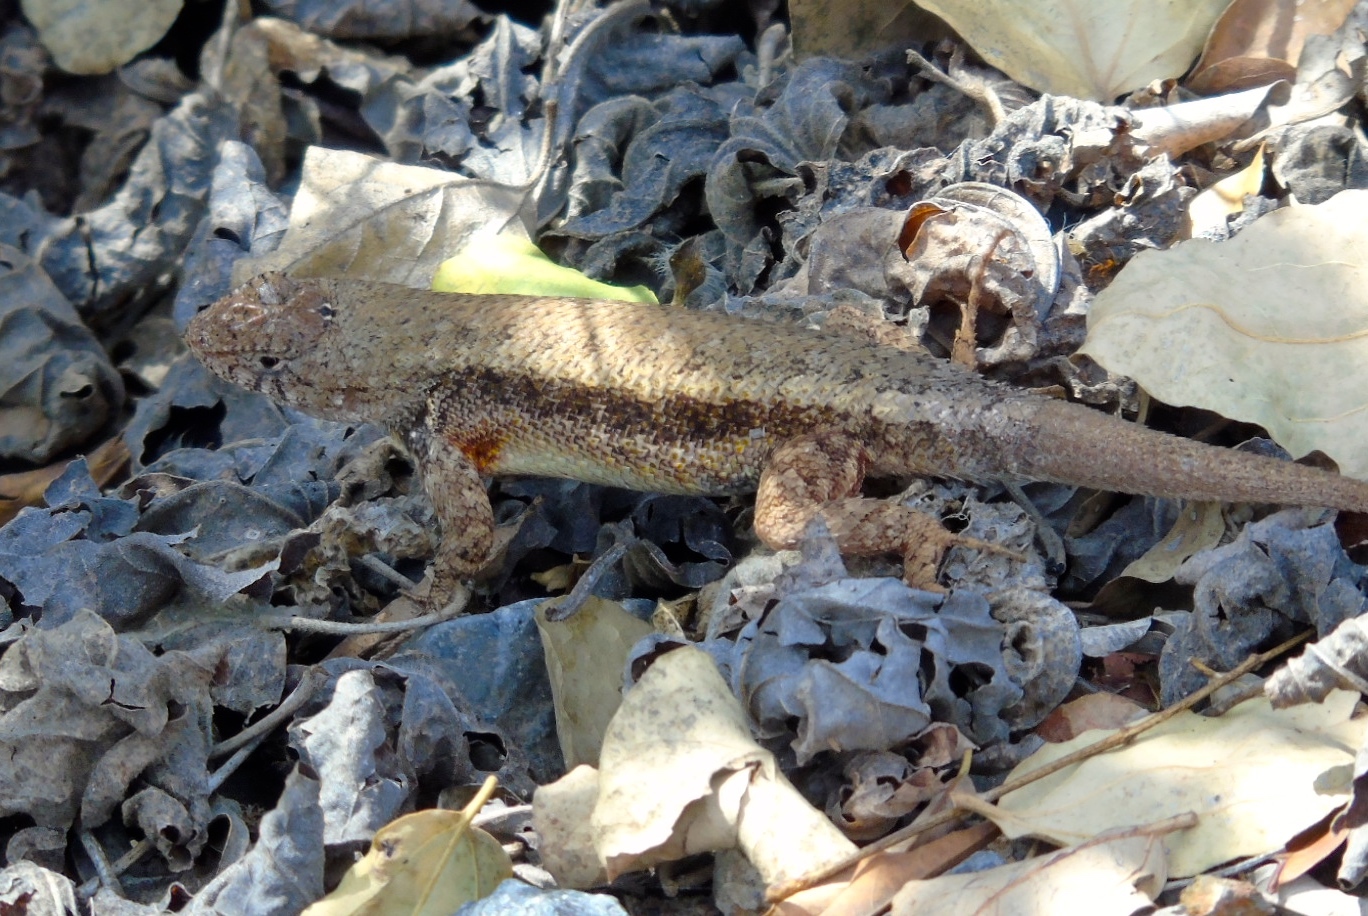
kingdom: Animalia
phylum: Chordata
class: Squamata
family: Phrynosomatidae
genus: Sceloporus
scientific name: Sceloporus nelsoni
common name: Nelson's spiny lizard
